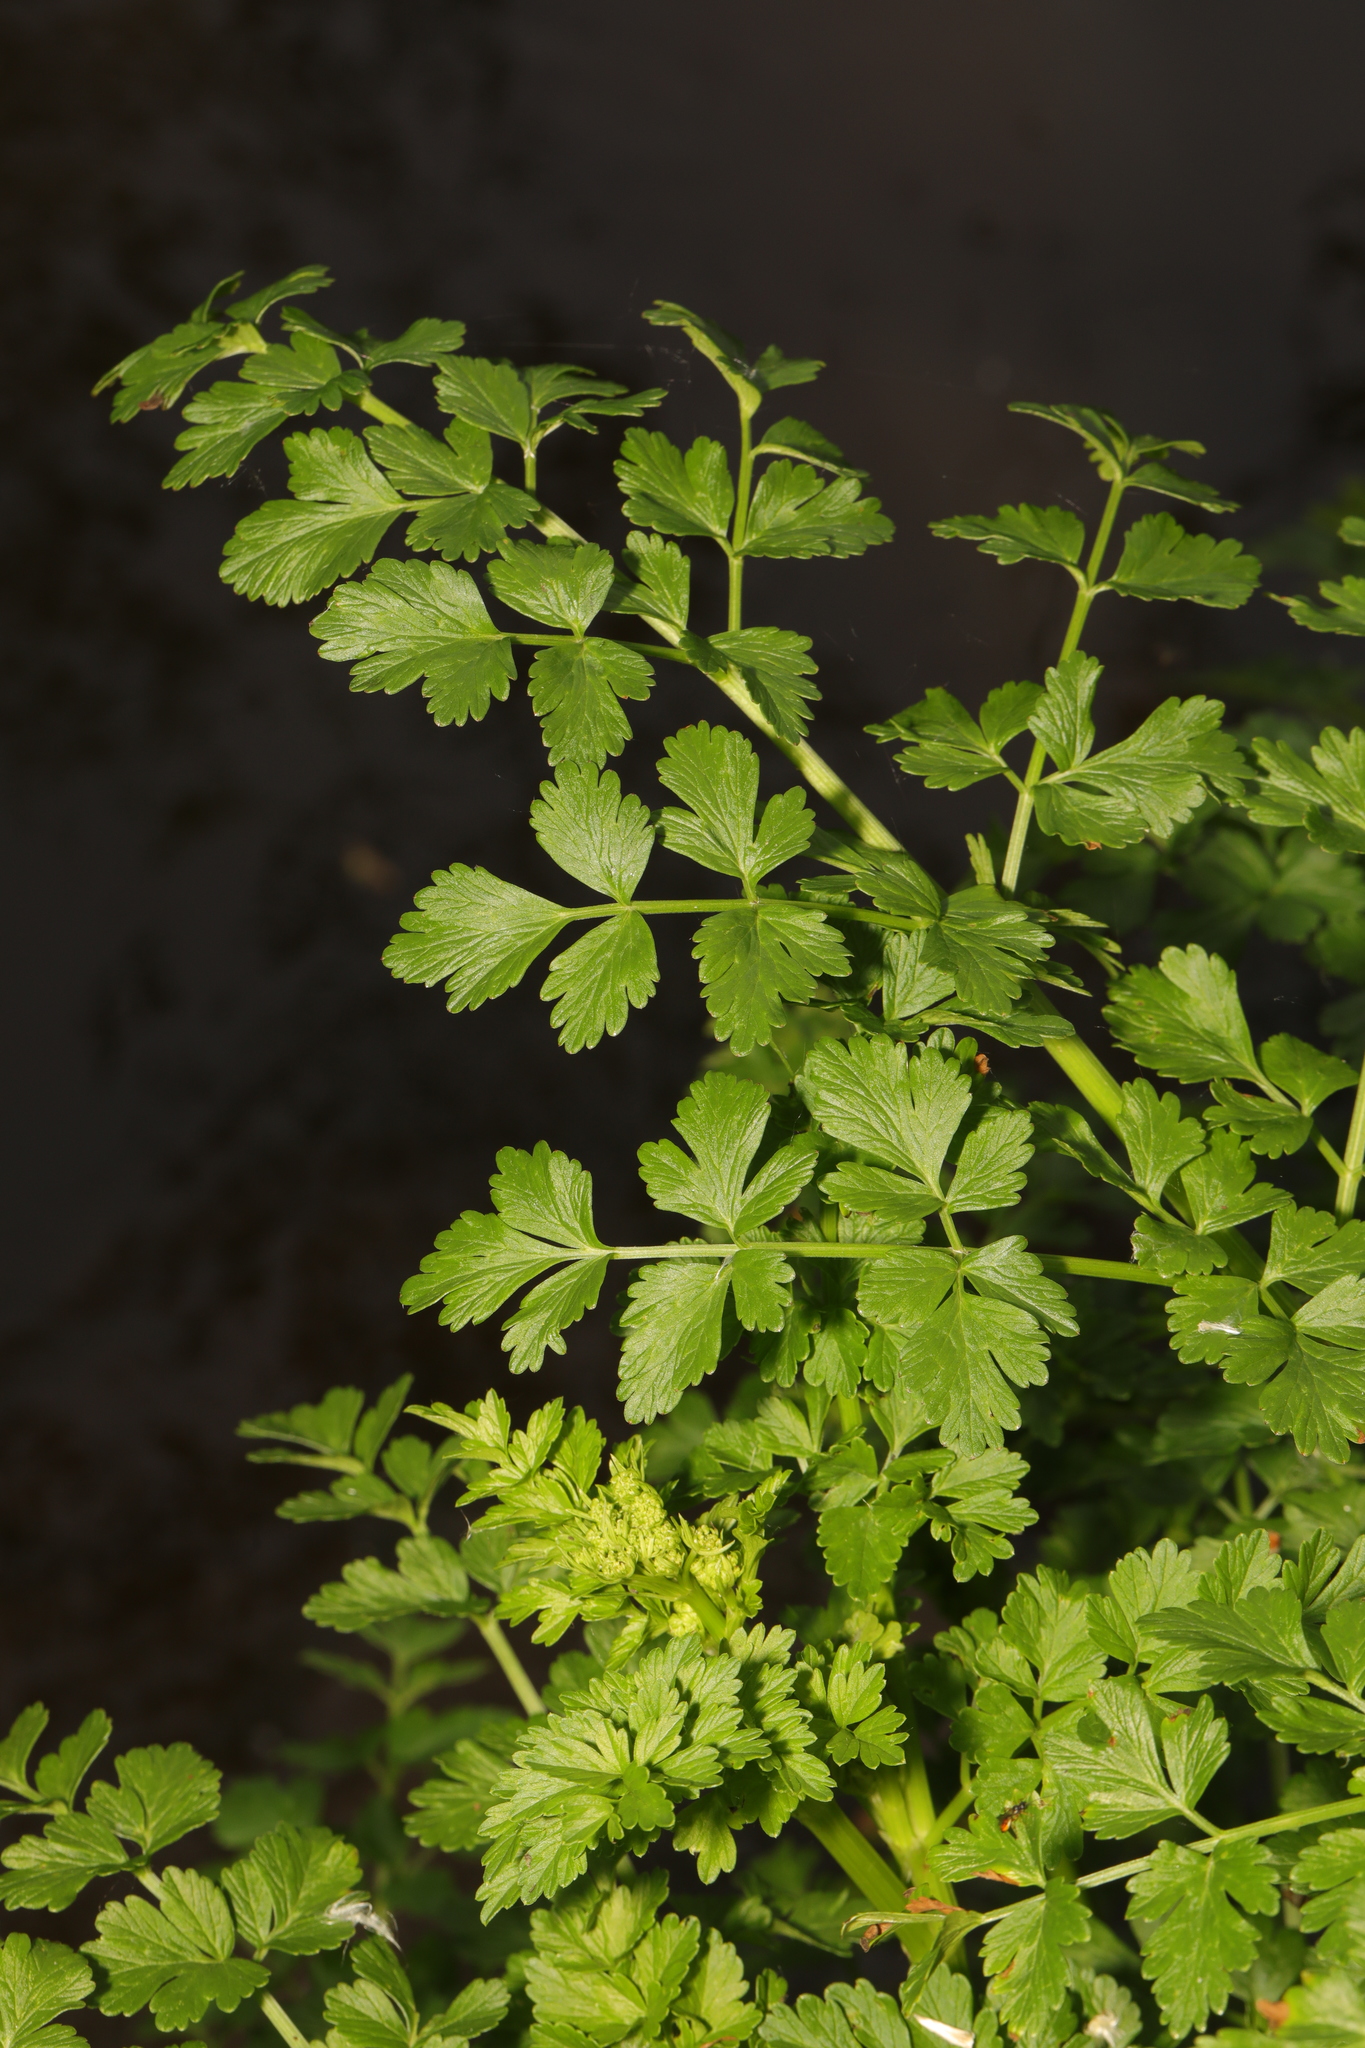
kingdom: Plantae
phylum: Tracheophyta
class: Magnoliopsida
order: Apiales
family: Apiaceae
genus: Oenanthe
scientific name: Oenanthe crocata
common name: Hemlock water-dropwort
